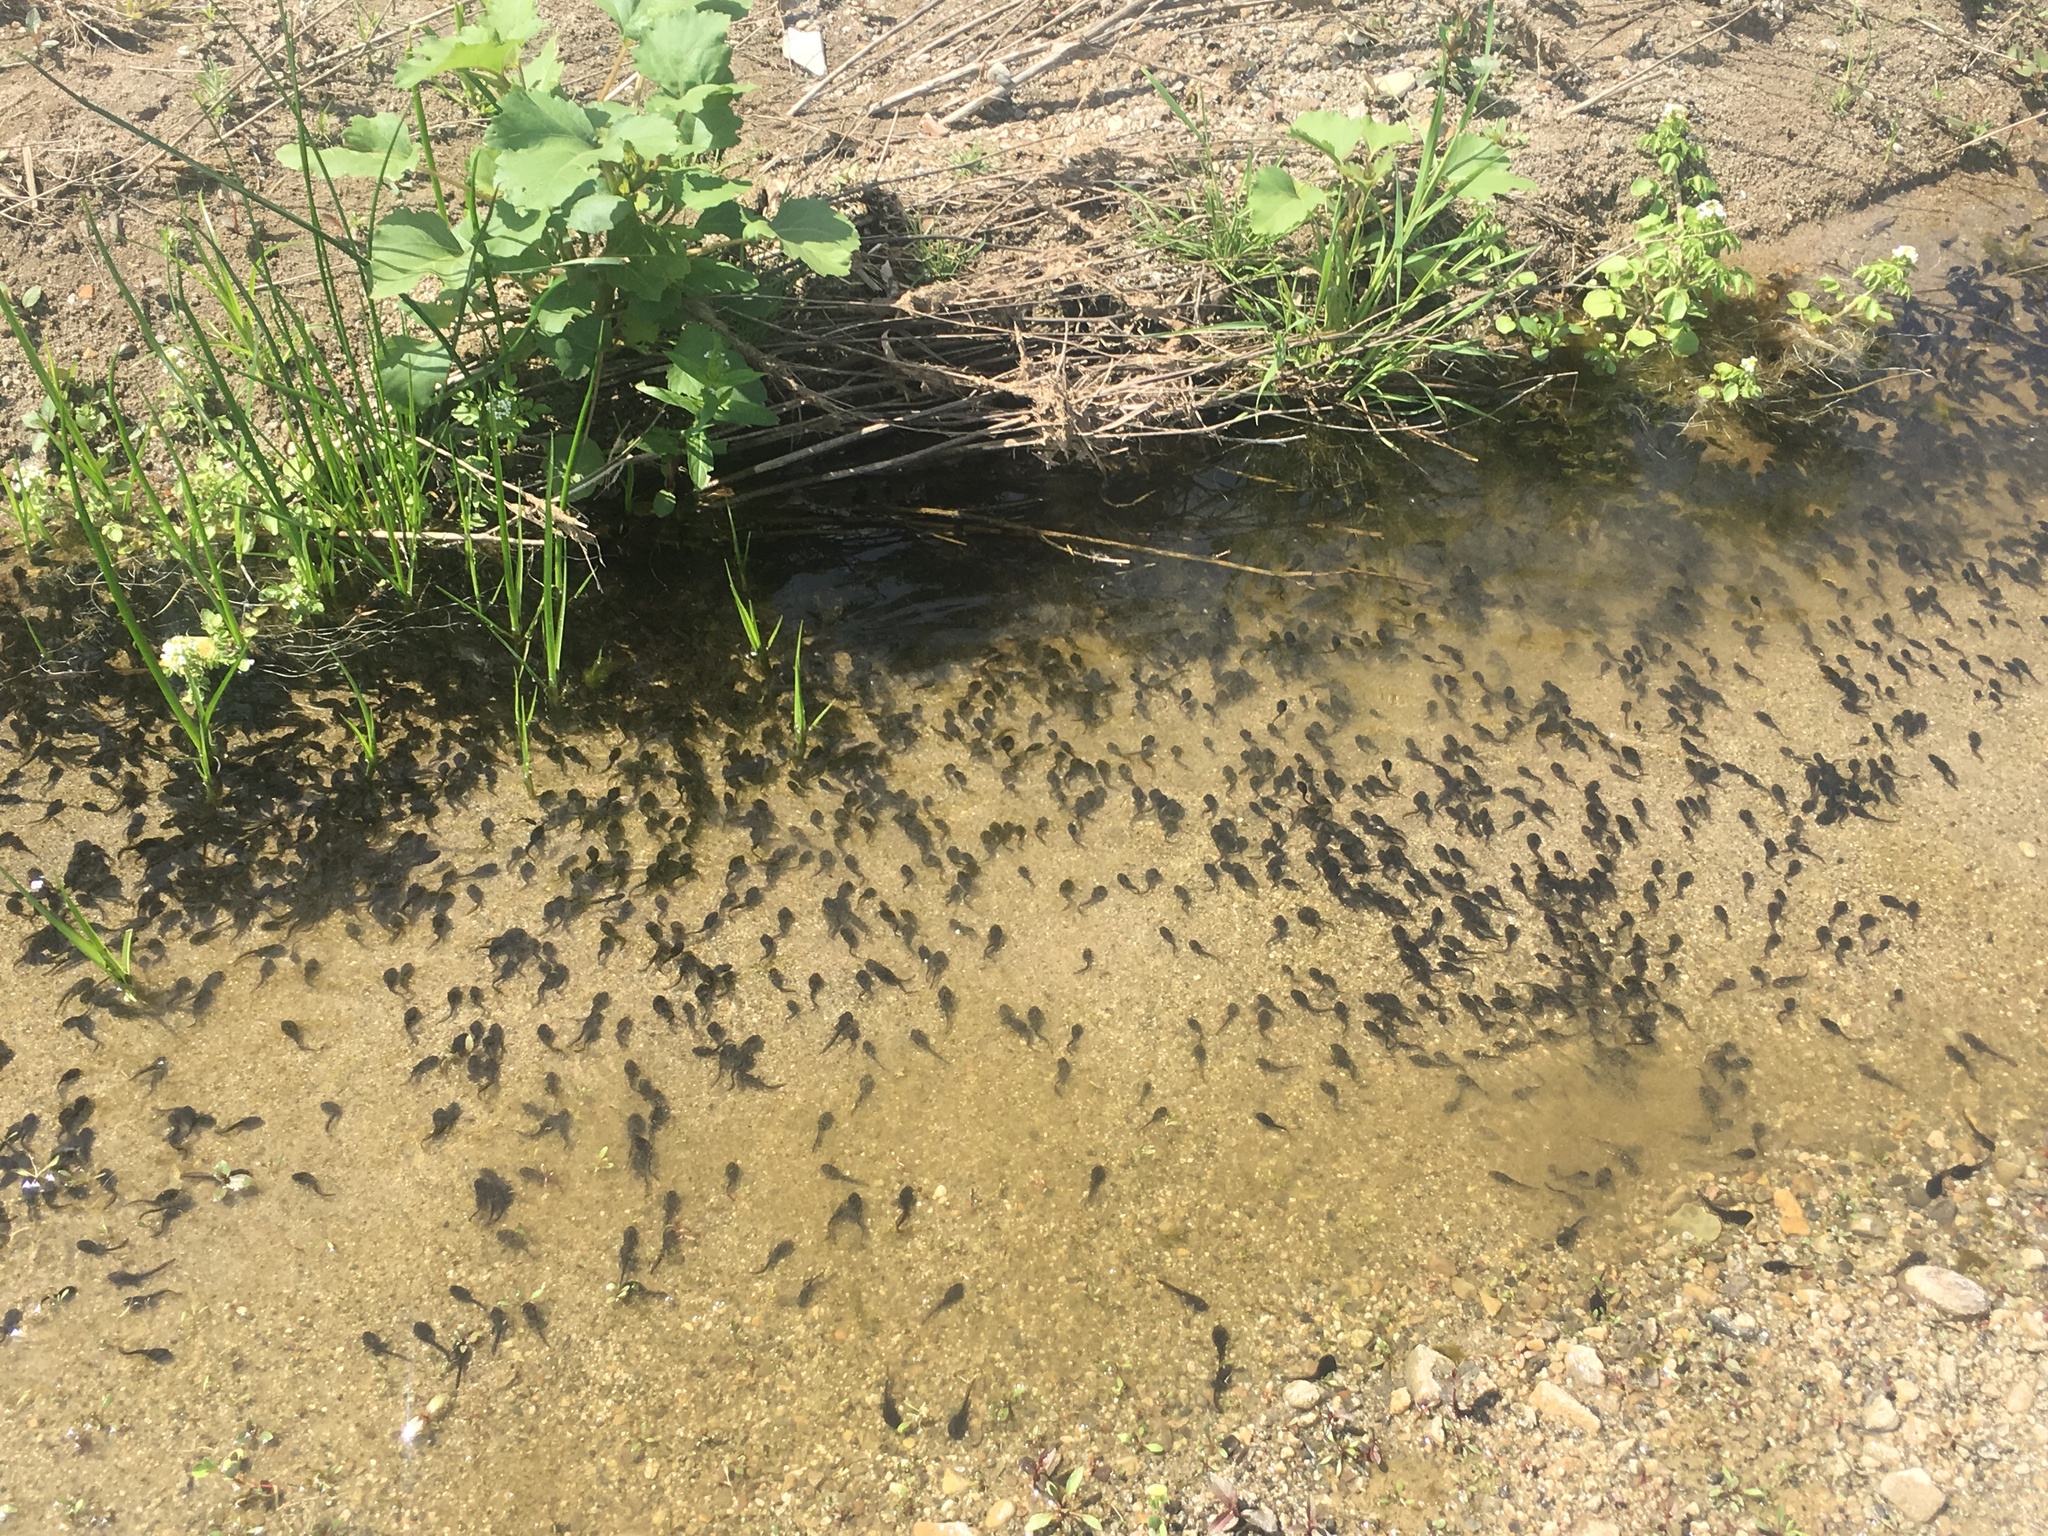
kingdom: Animalia
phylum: Chordata
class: Amphibia
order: Anura
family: Bufonidae
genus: Anaxyrus
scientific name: Anaxyrus boreas
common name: Western toad
